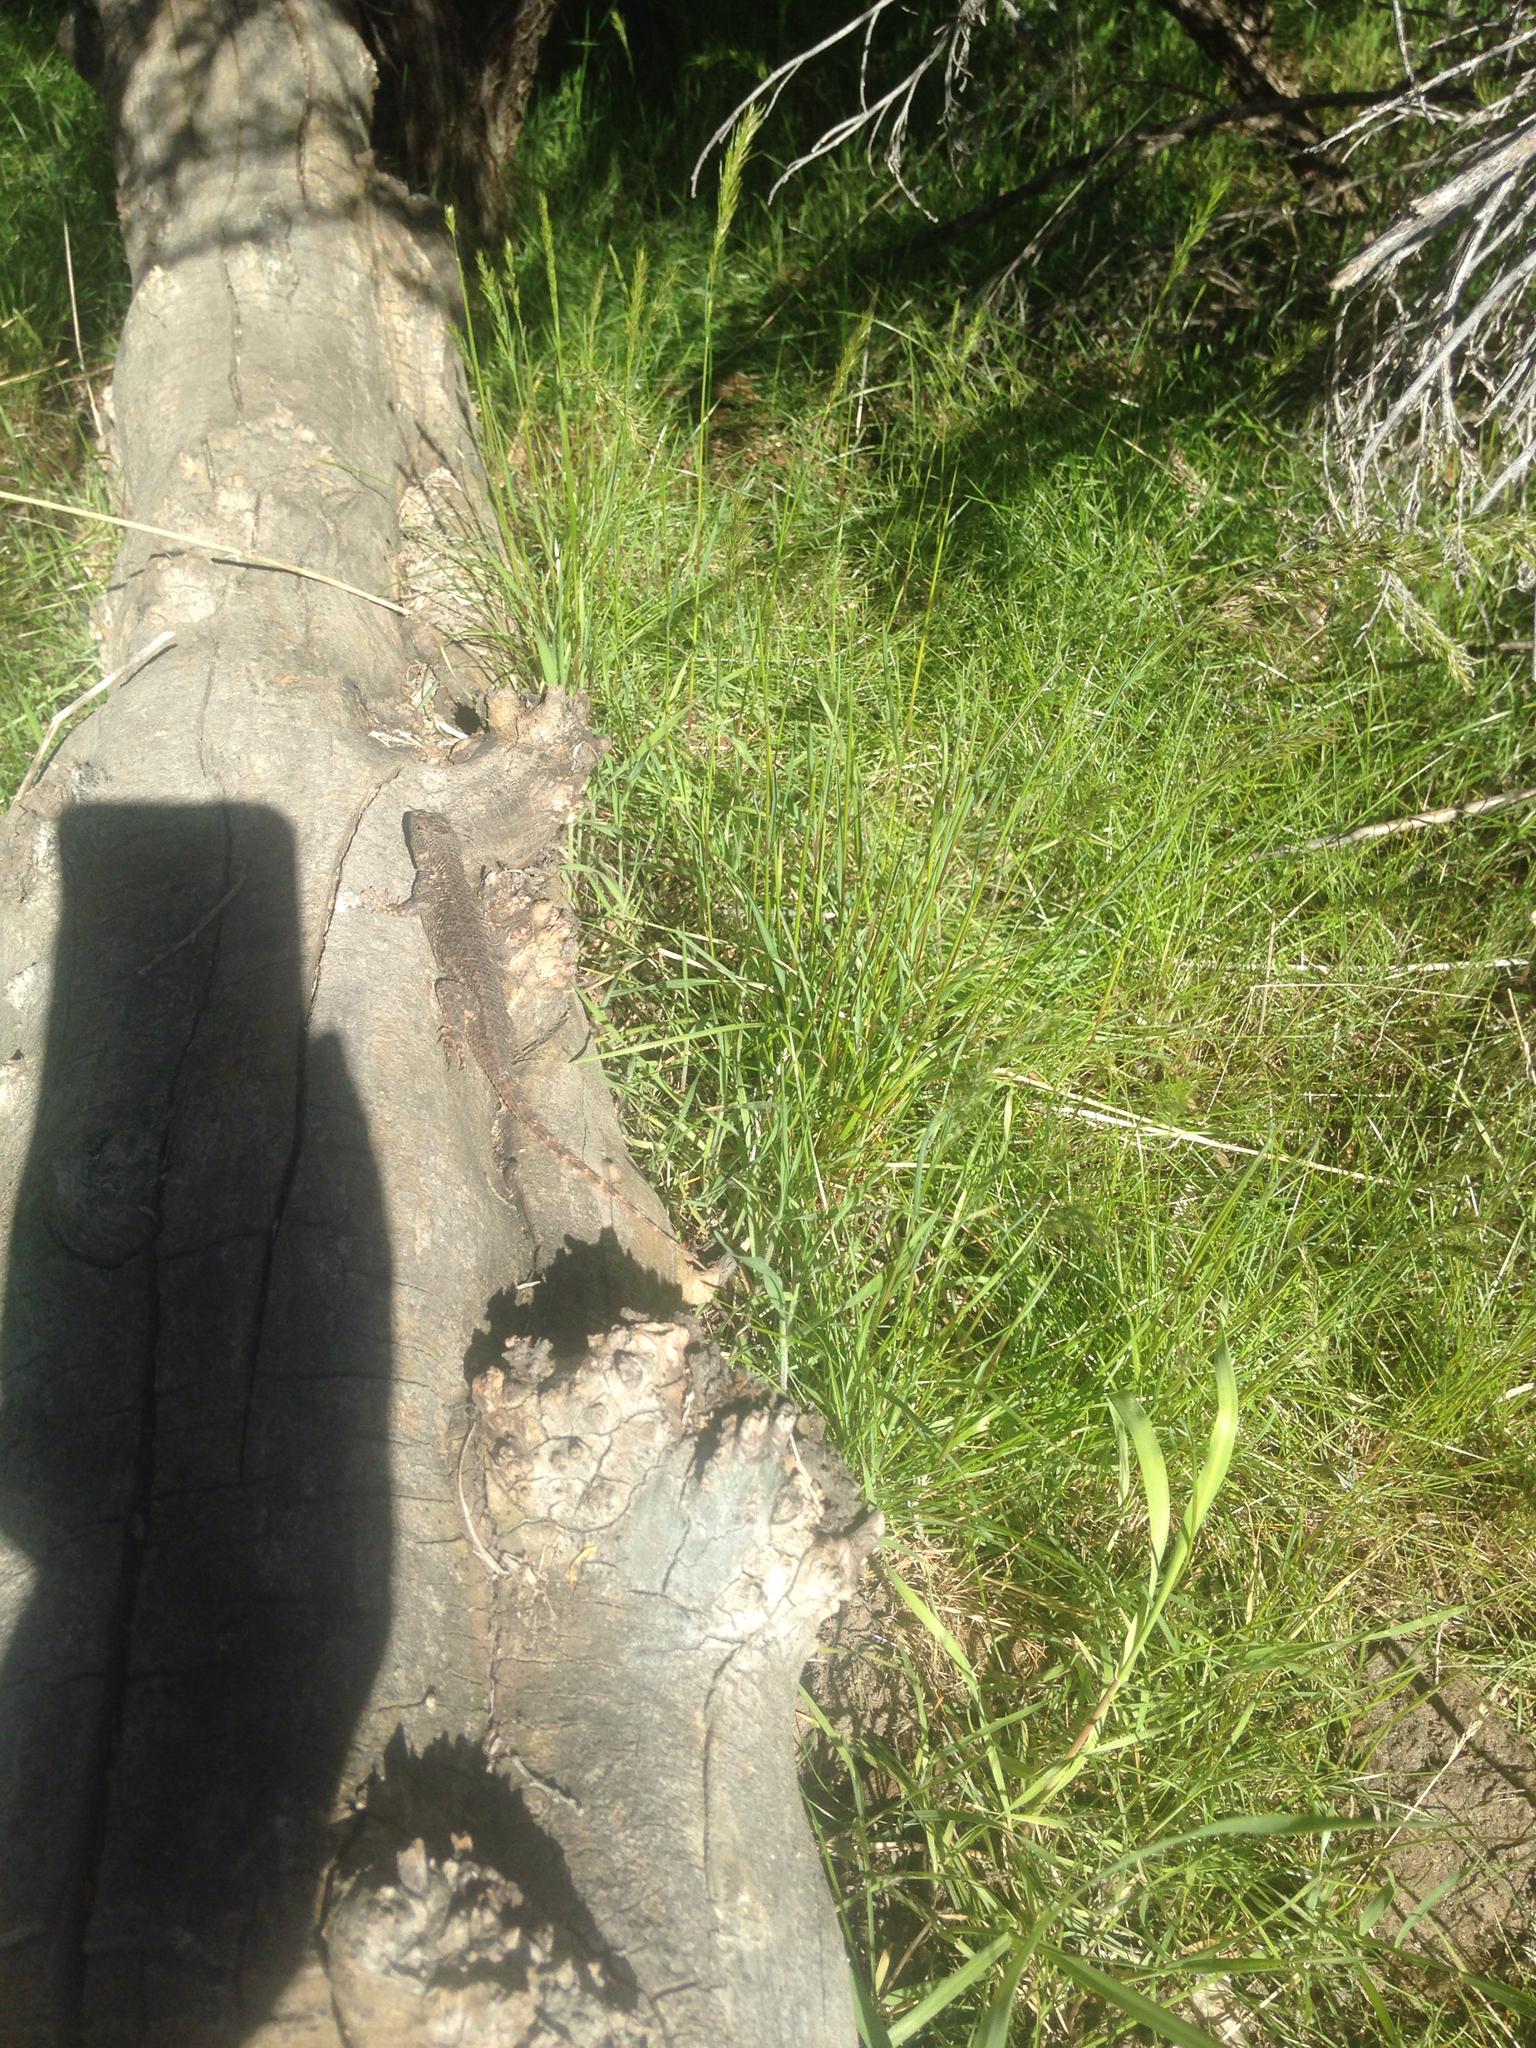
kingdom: Animalia
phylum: Chordata
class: Squamata
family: Phrynosomatidae
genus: Sceloporus
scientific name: Sceloporus occidentalis
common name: Western fence lizard
